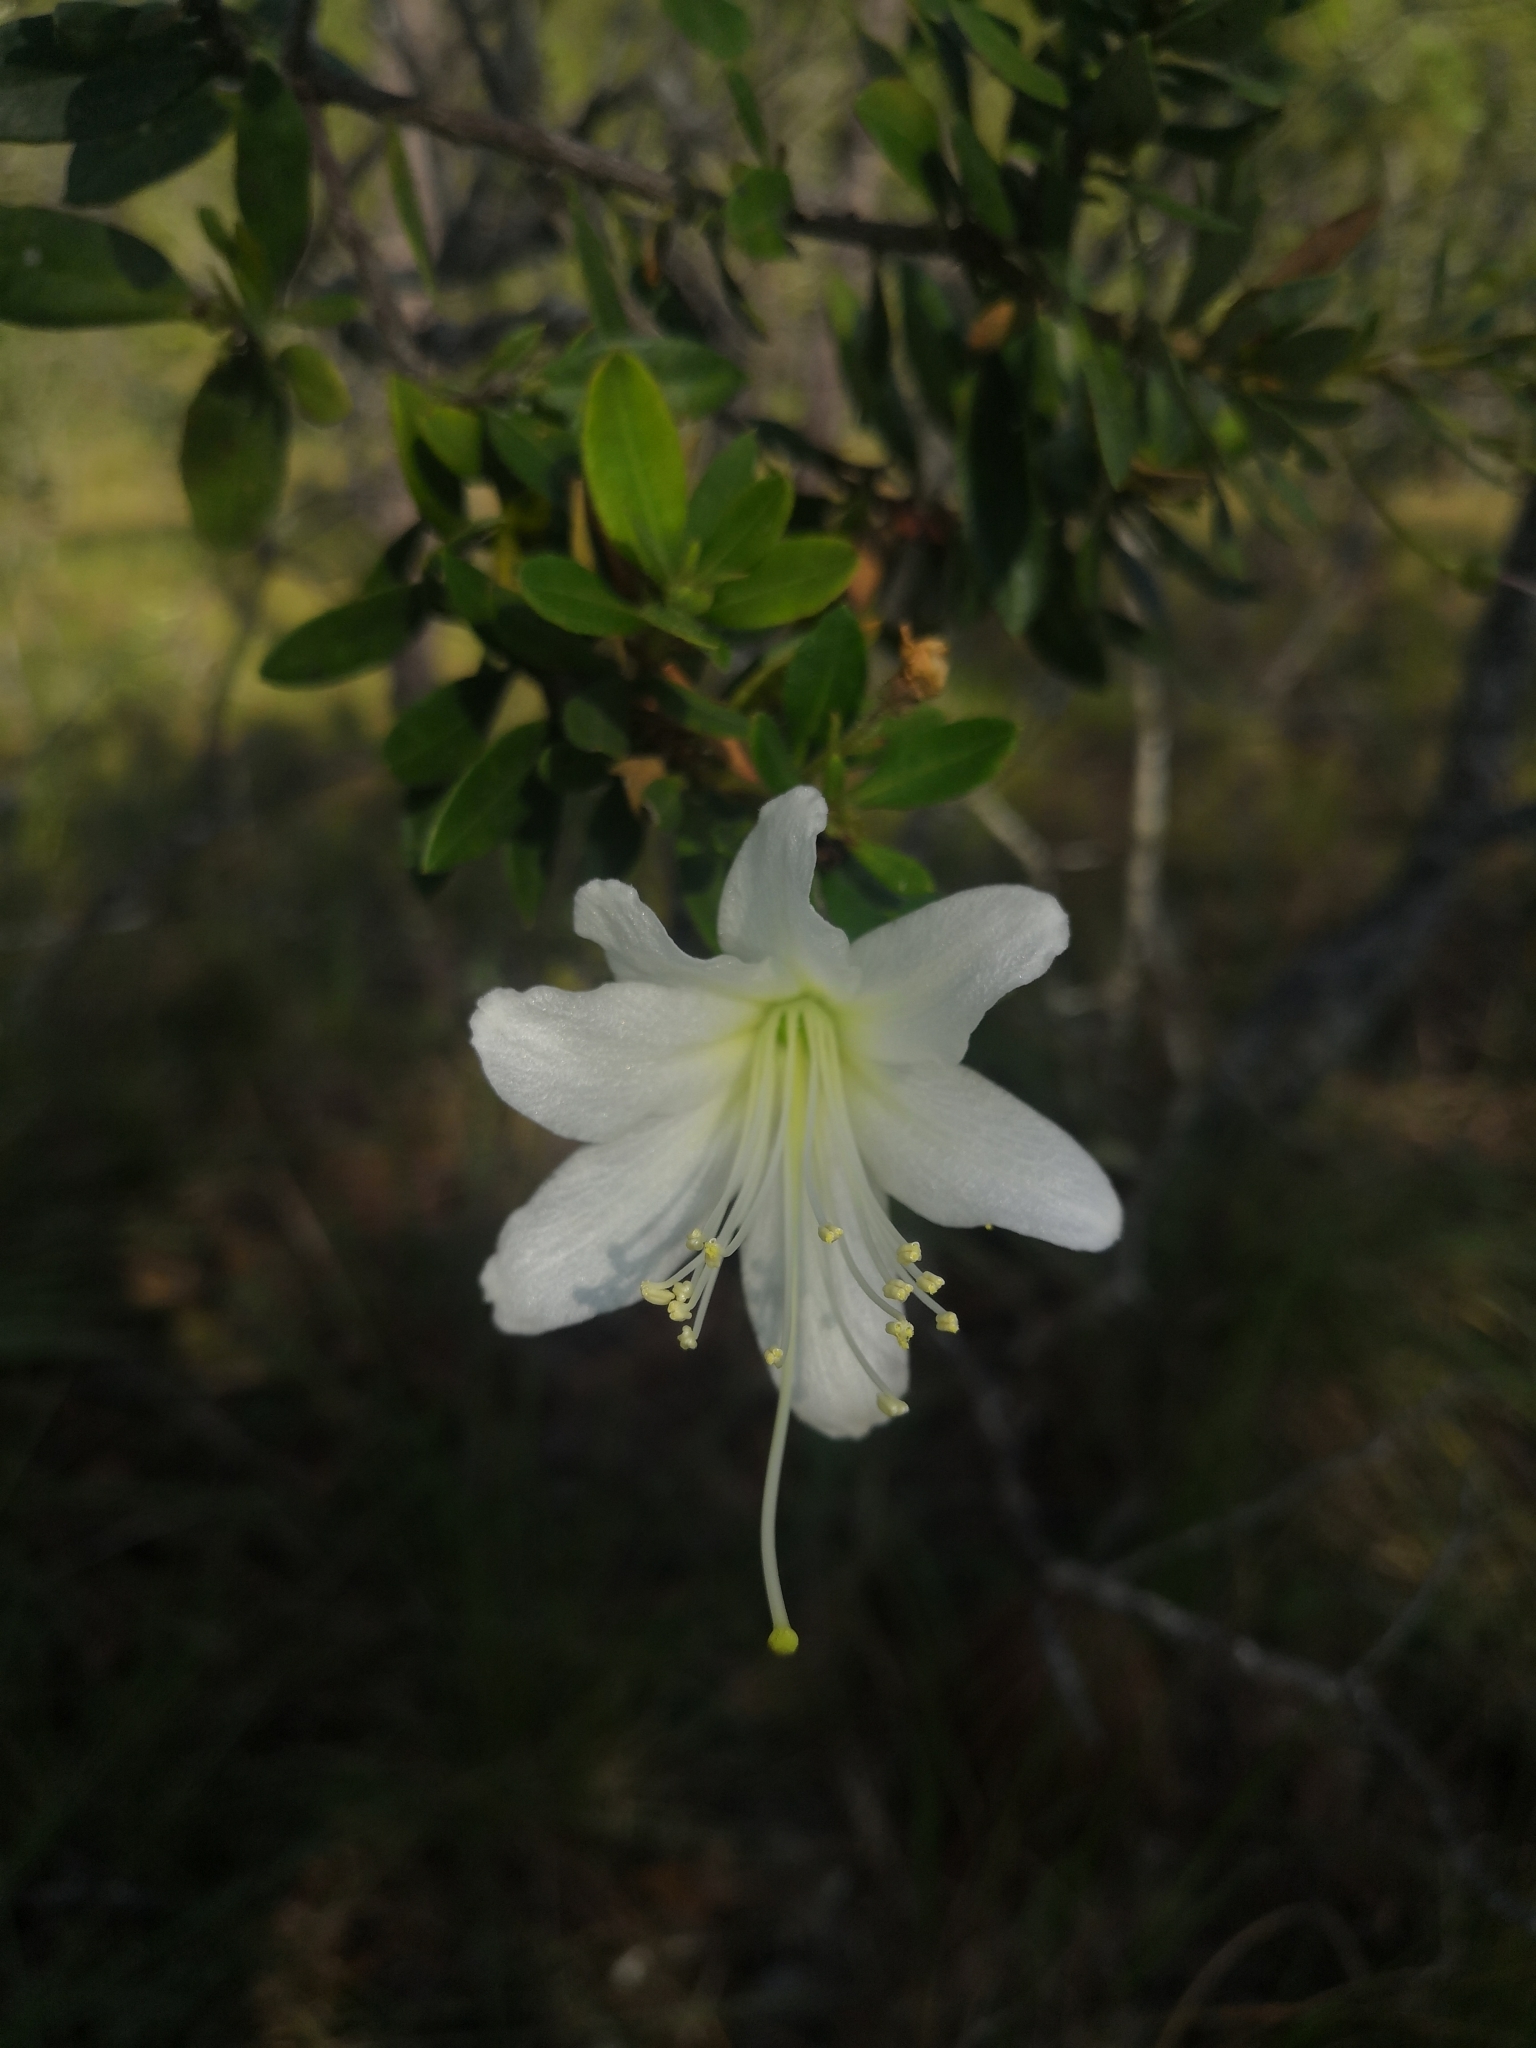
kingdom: Plantae
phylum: Tracheophyta
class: Magnoliopsida
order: Ericales
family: Ericaceae
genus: Bejaria
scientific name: Bejaria aestuans
